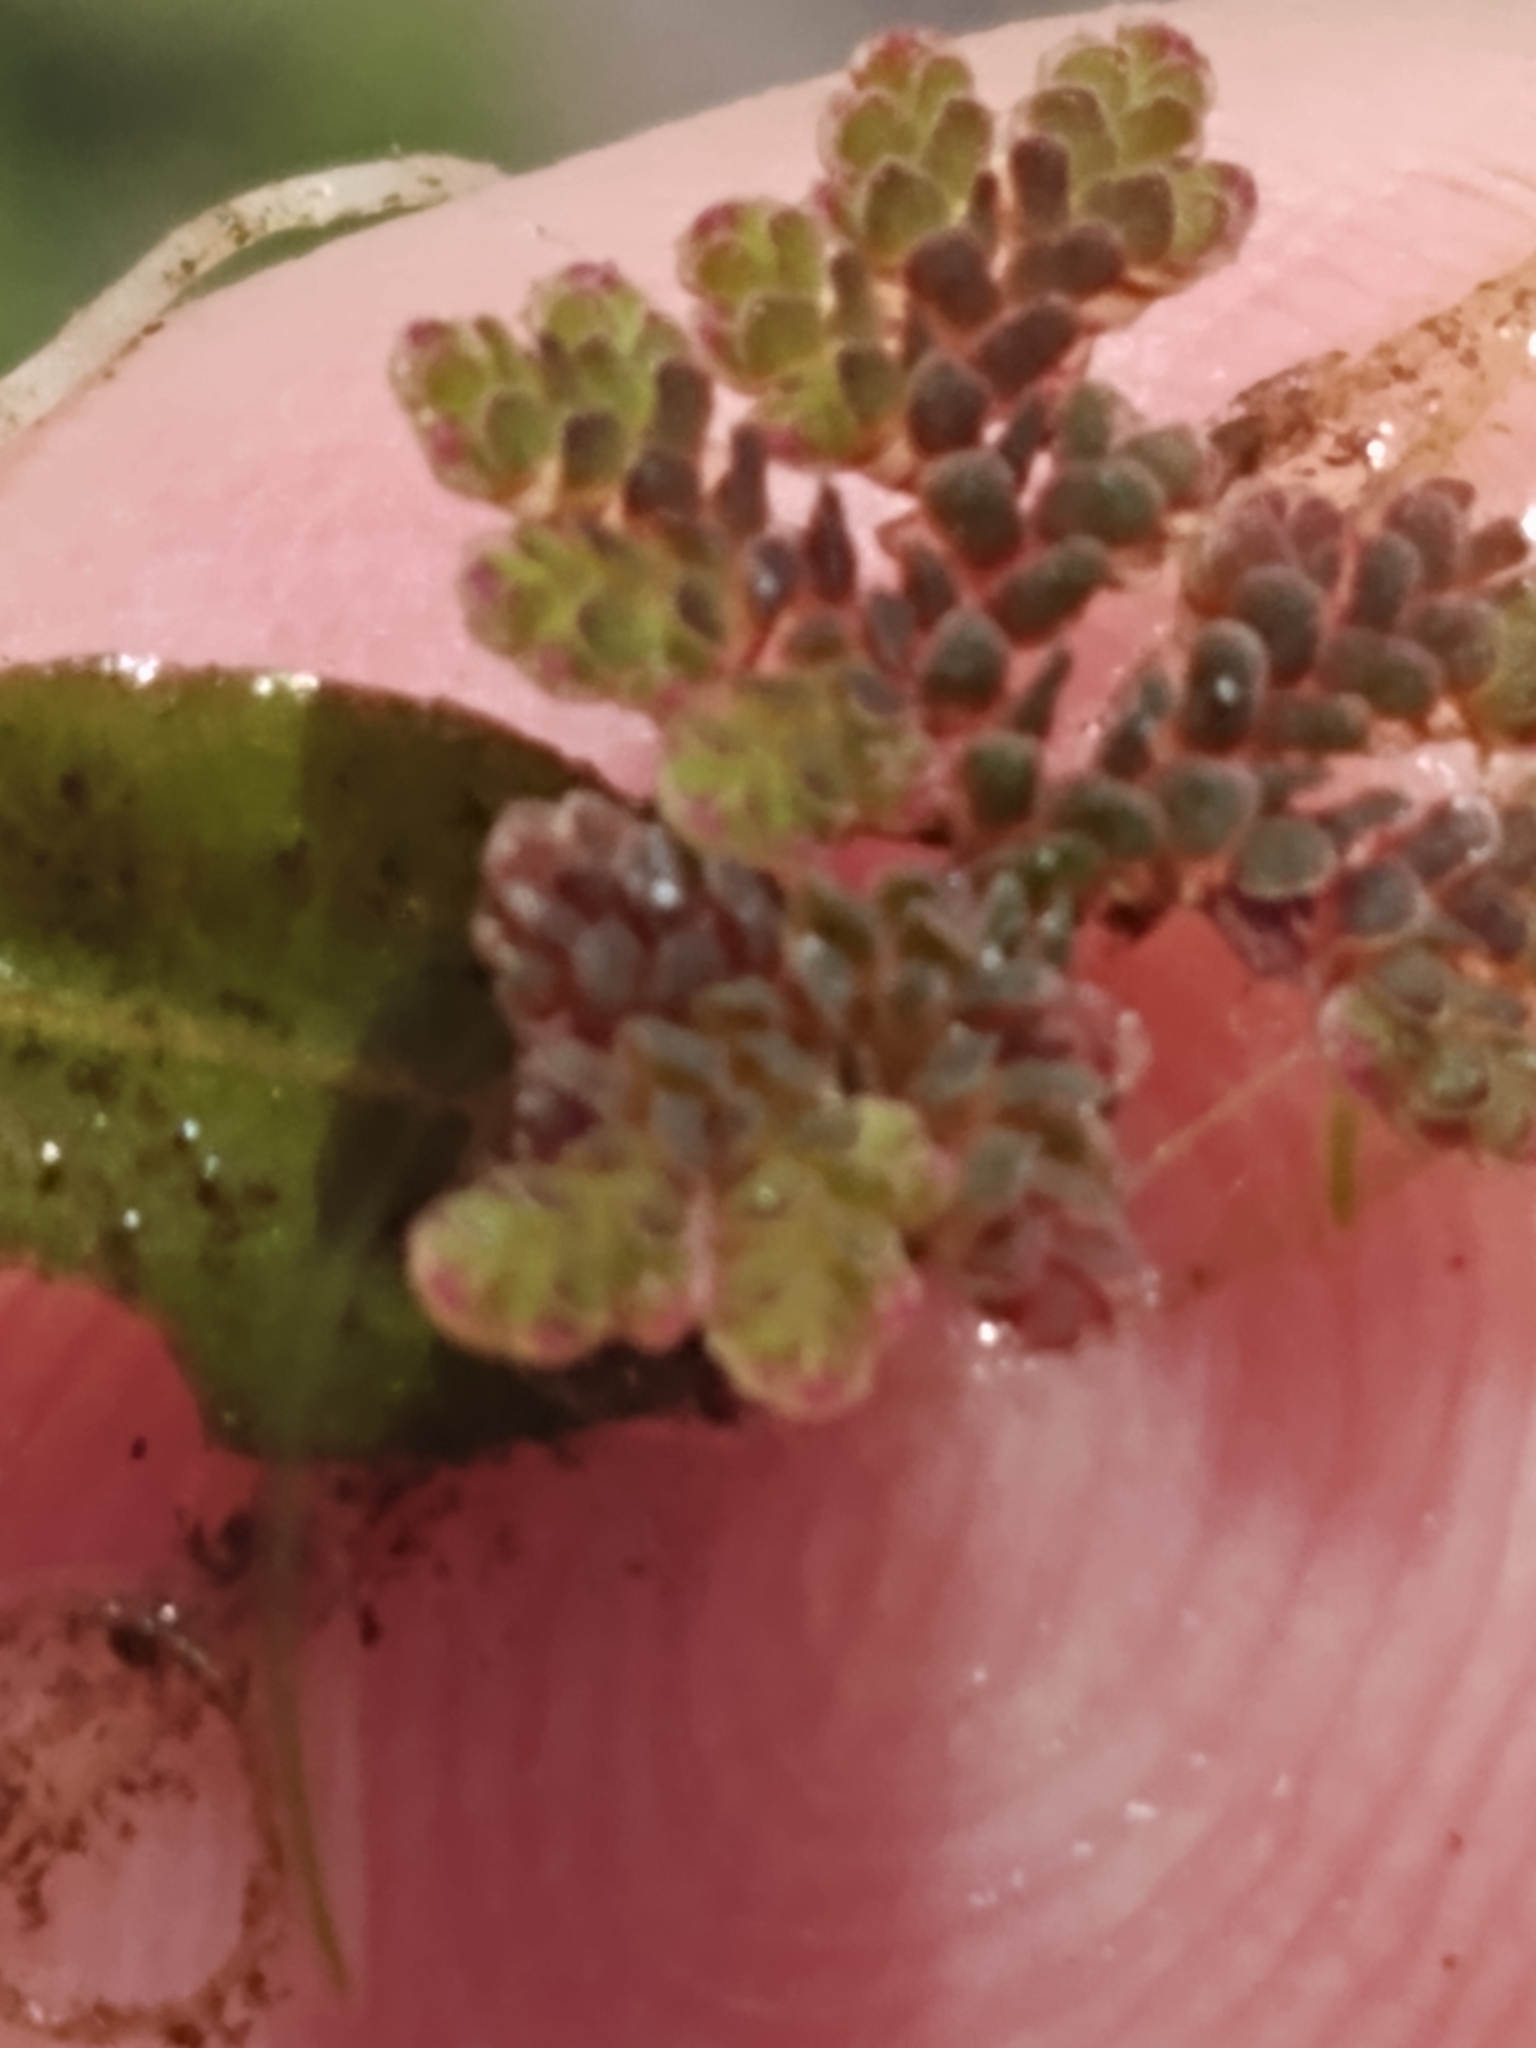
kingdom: Plantae
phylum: Tracheophyta
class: Polypodiopsida
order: Salviniales
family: Salviniaceae
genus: Azolla
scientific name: Azolla caroliniana
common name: Carolina mosquitofern
